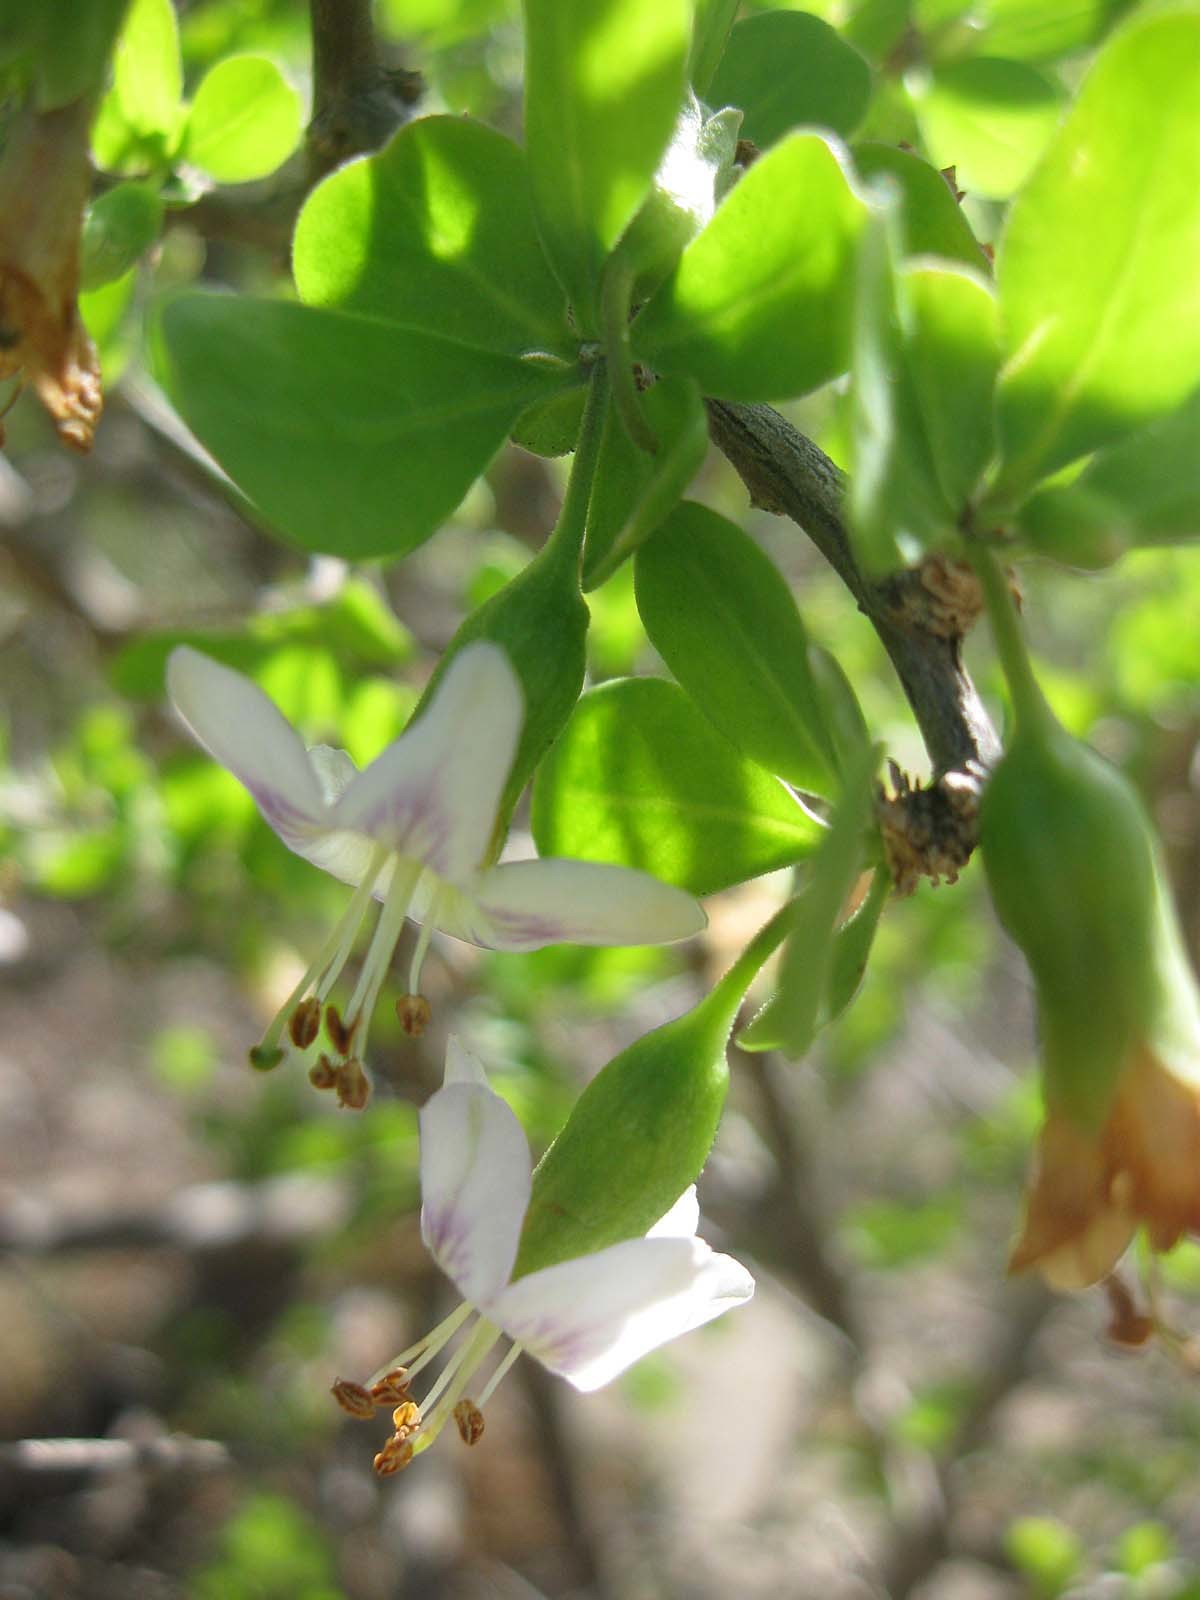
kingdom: Plantae
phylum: Tracheophyta
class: Magnoliopsida
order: Solanales
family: Solanaceae
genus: Lycium
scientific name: Lycium ferocissimum
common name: African boxthorn
